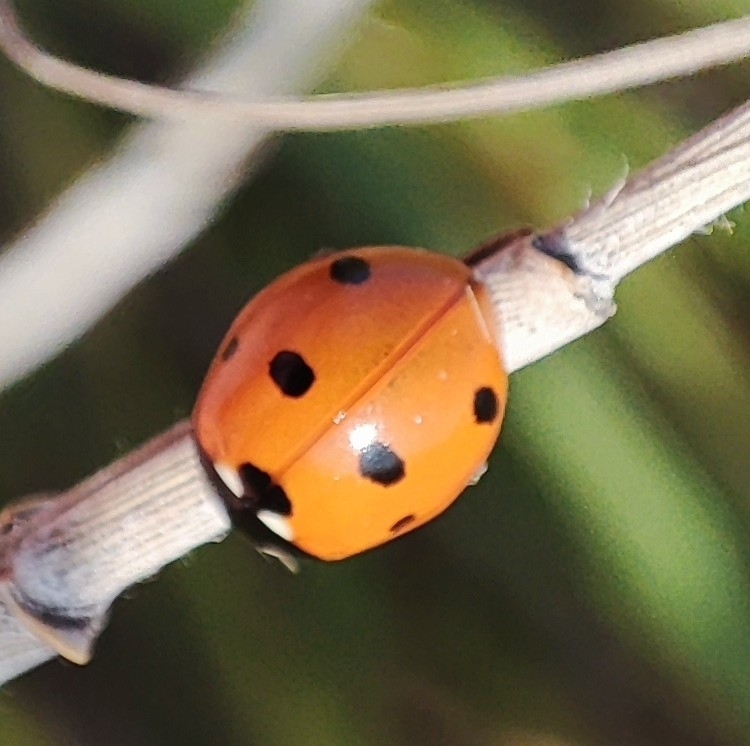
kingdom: Animalia
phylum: Arthropoda
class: Insecta
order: Coleoptera
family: Coccinellidae
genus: Coccinella
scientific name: Coccinella septempunctata
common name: Sevenspotted lady beetle
